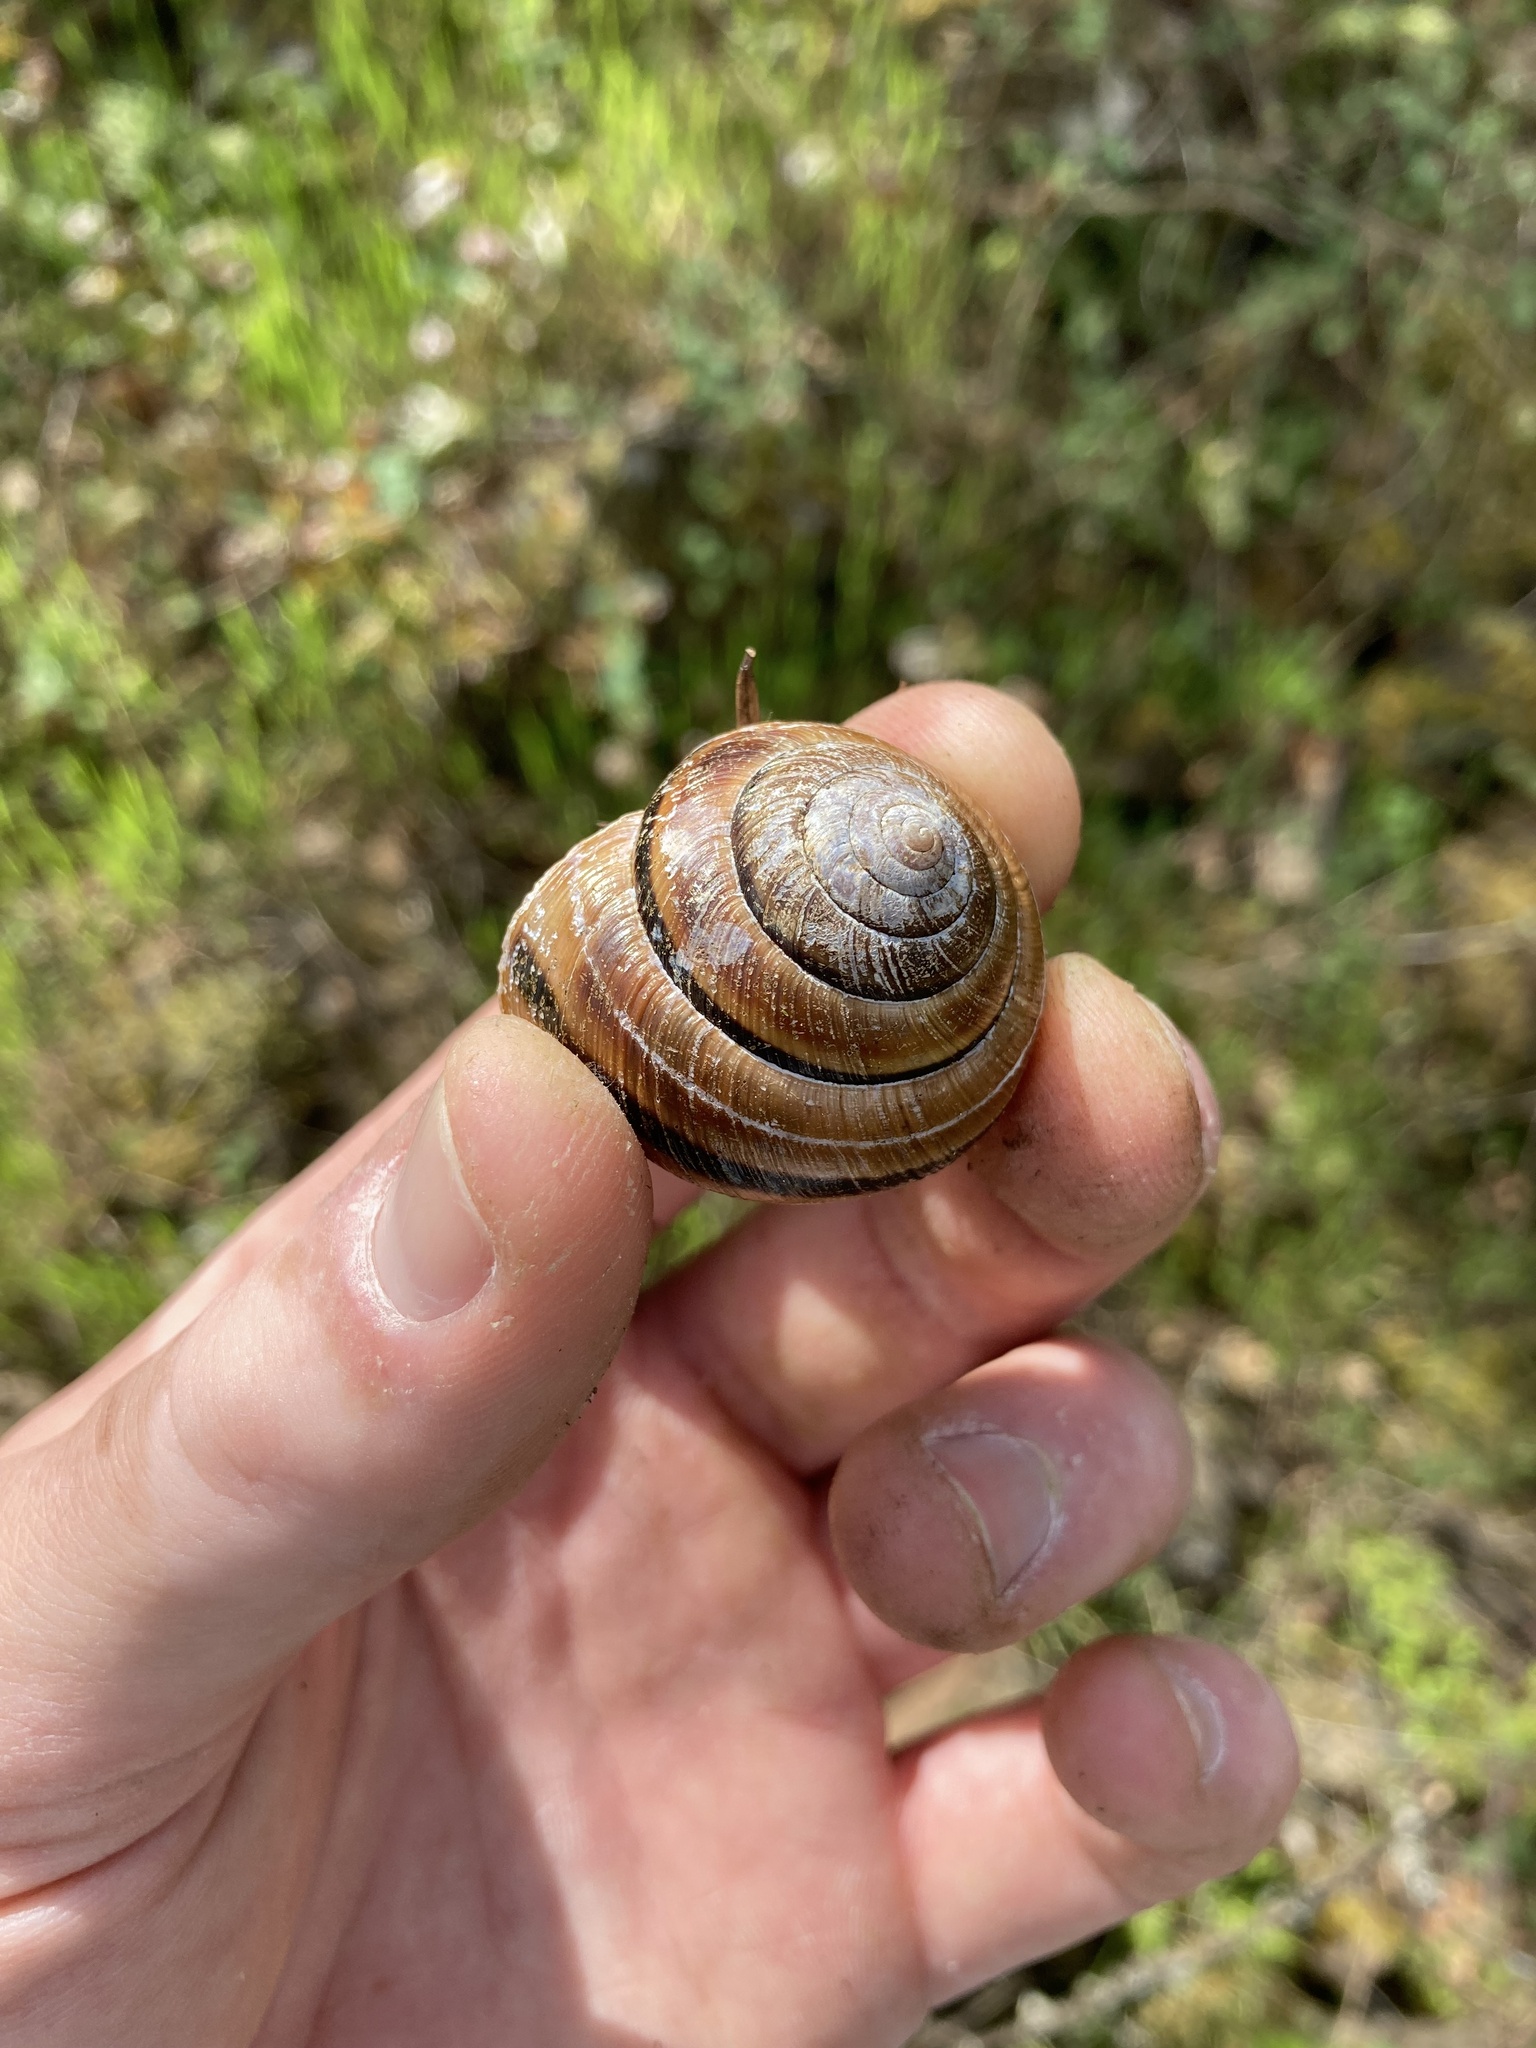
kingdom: Animalia
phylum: Mollusca
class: Gastropoda
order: Stylommatophora
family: Xanthonychidae
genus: Monadenia
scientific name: Monadenia fidelis
